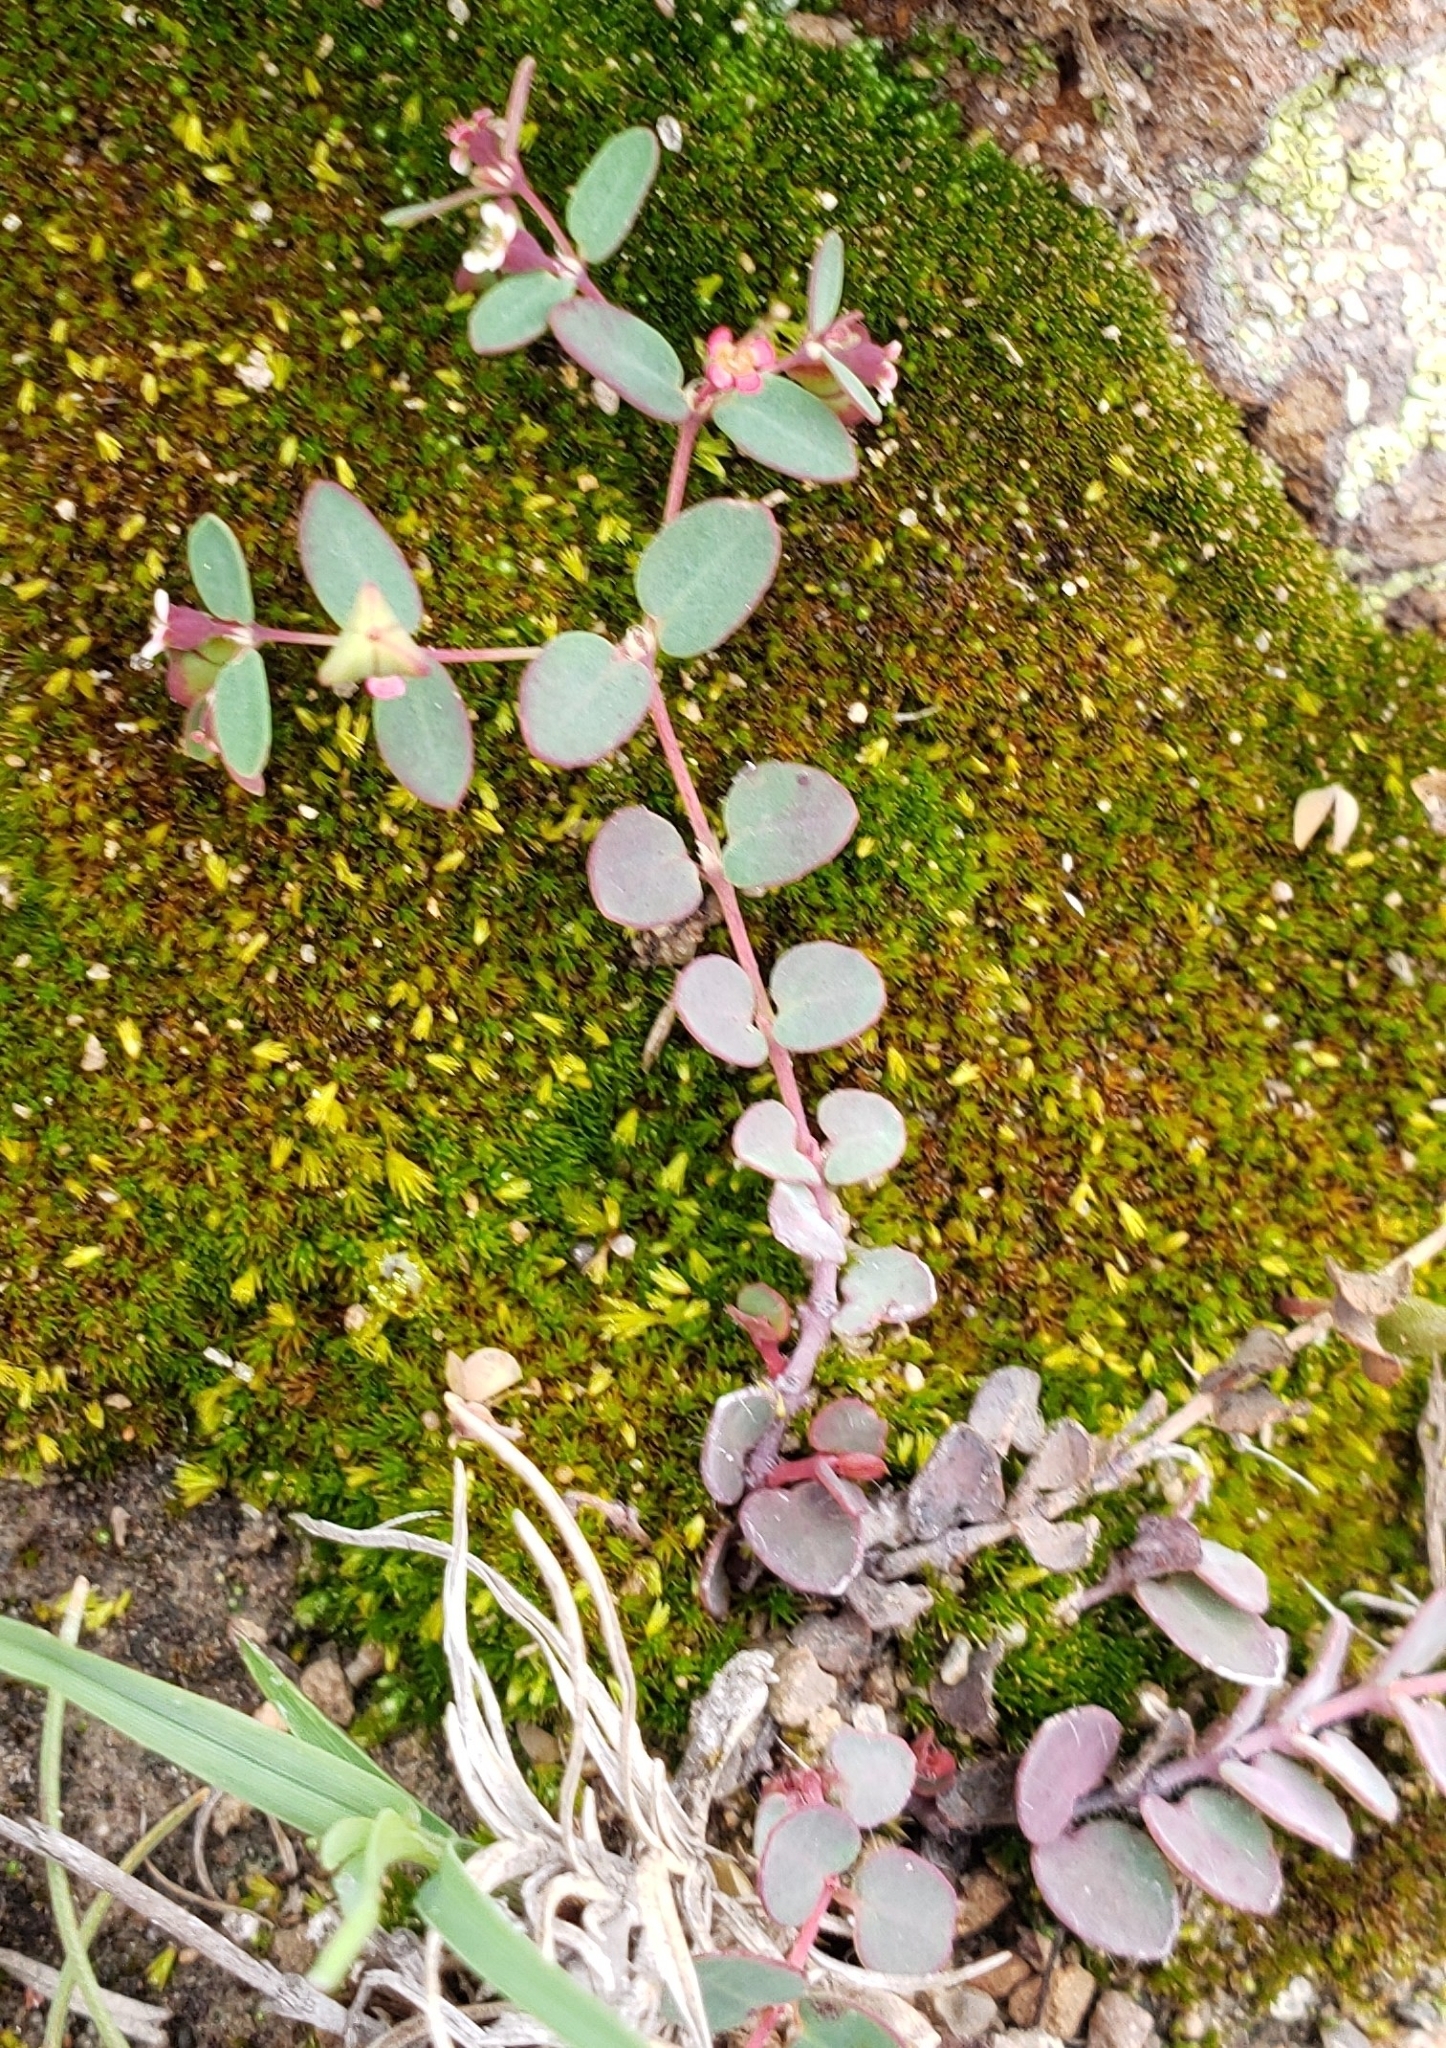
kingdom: Plantae
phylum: Tracheophyta
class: Magnoliopsida
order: Malpighiales
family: Euphorbiaceae
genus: Euphorbia
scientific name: Euphorbia villifera
